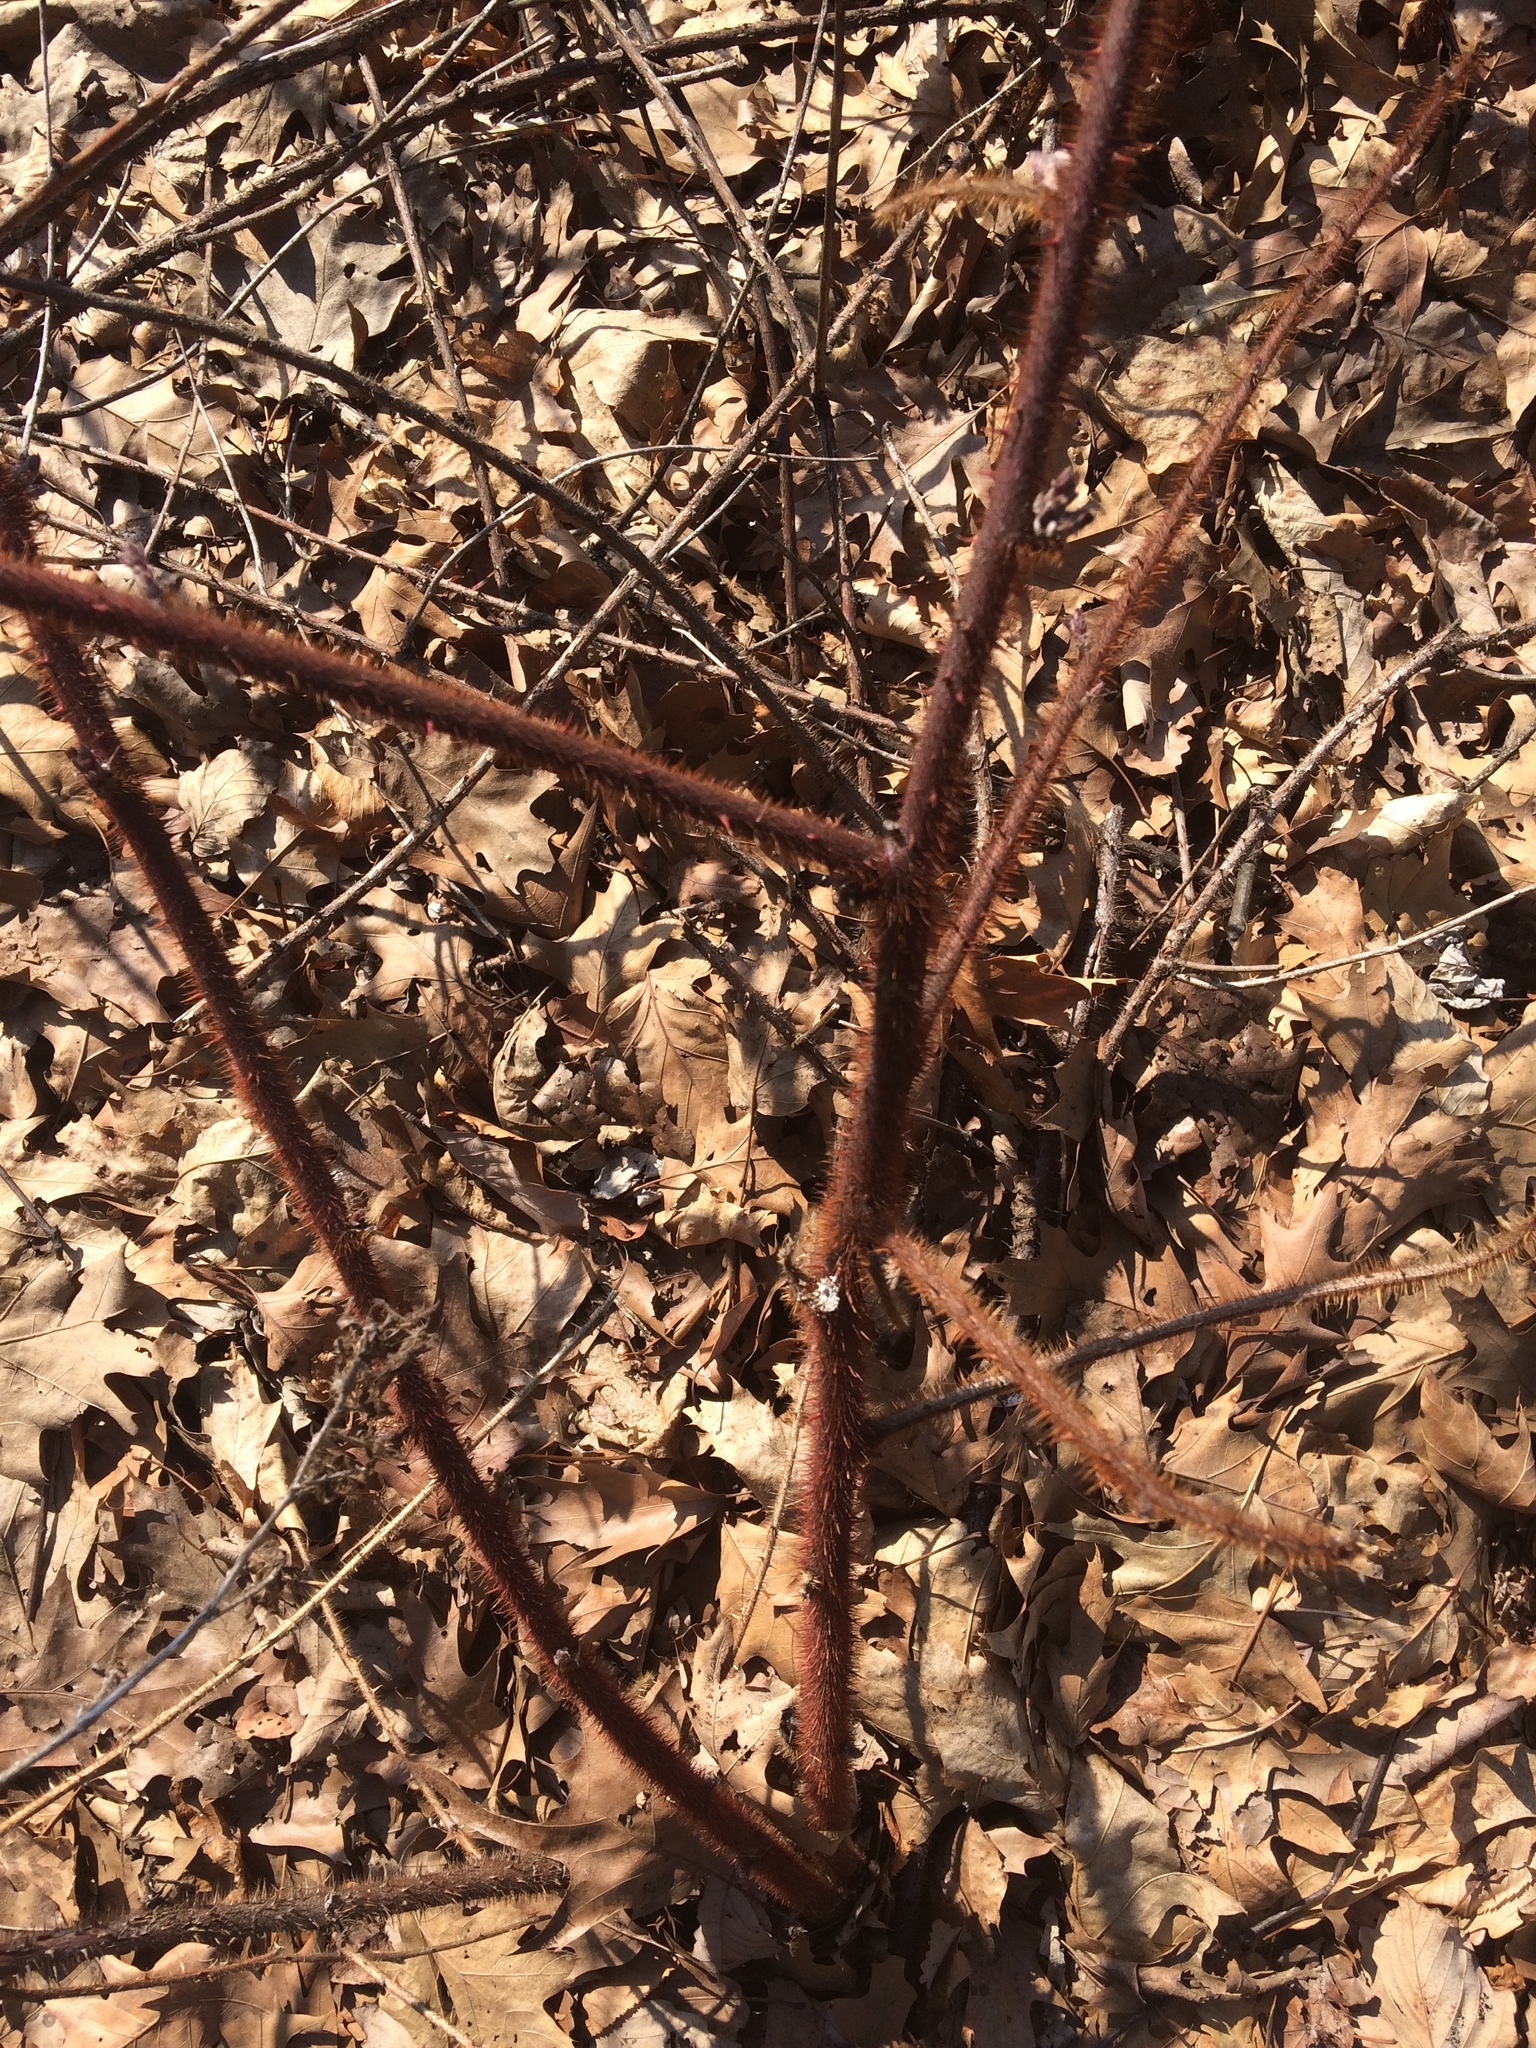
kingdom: Plantae
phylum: Tracheophyta
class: Magnoliopsida
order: Rosales
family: Rosaceae
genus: Rubus
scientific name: Rubus phoenicolasius
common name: Japanese wineberry
